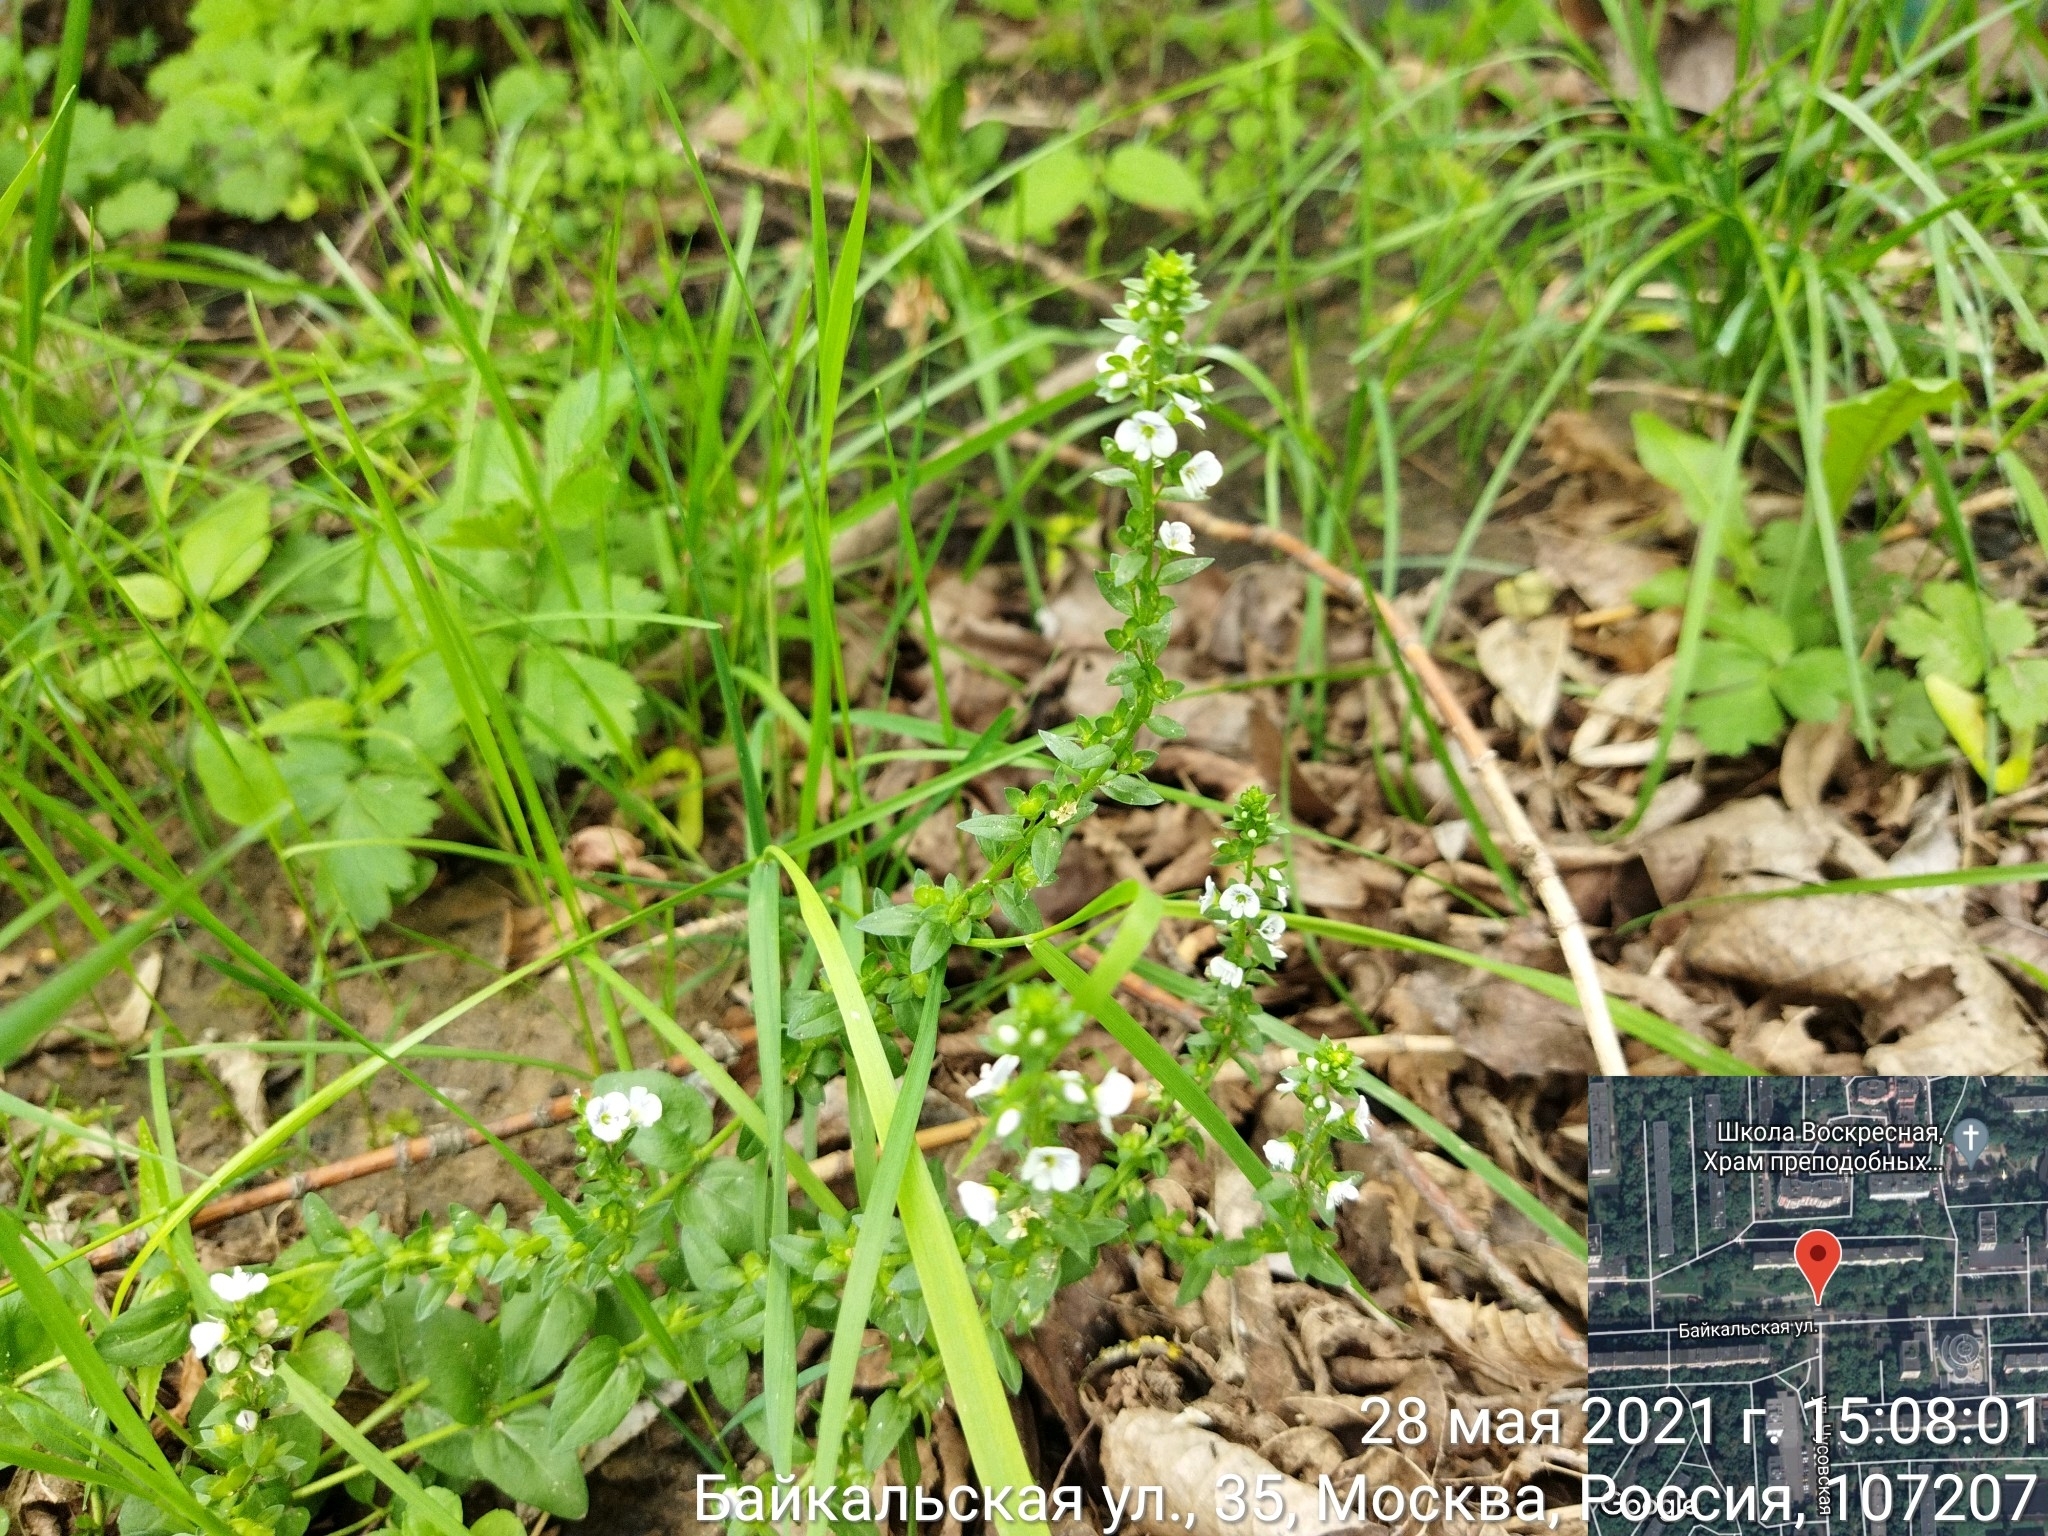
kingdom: Plantae
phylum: Tracheophyta
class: Magnoliopsida
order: Lamiales
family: Plantaginaceae
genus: Veronica
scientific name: Veronica serpyllifolia
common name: Thyme-leaved speedwell
